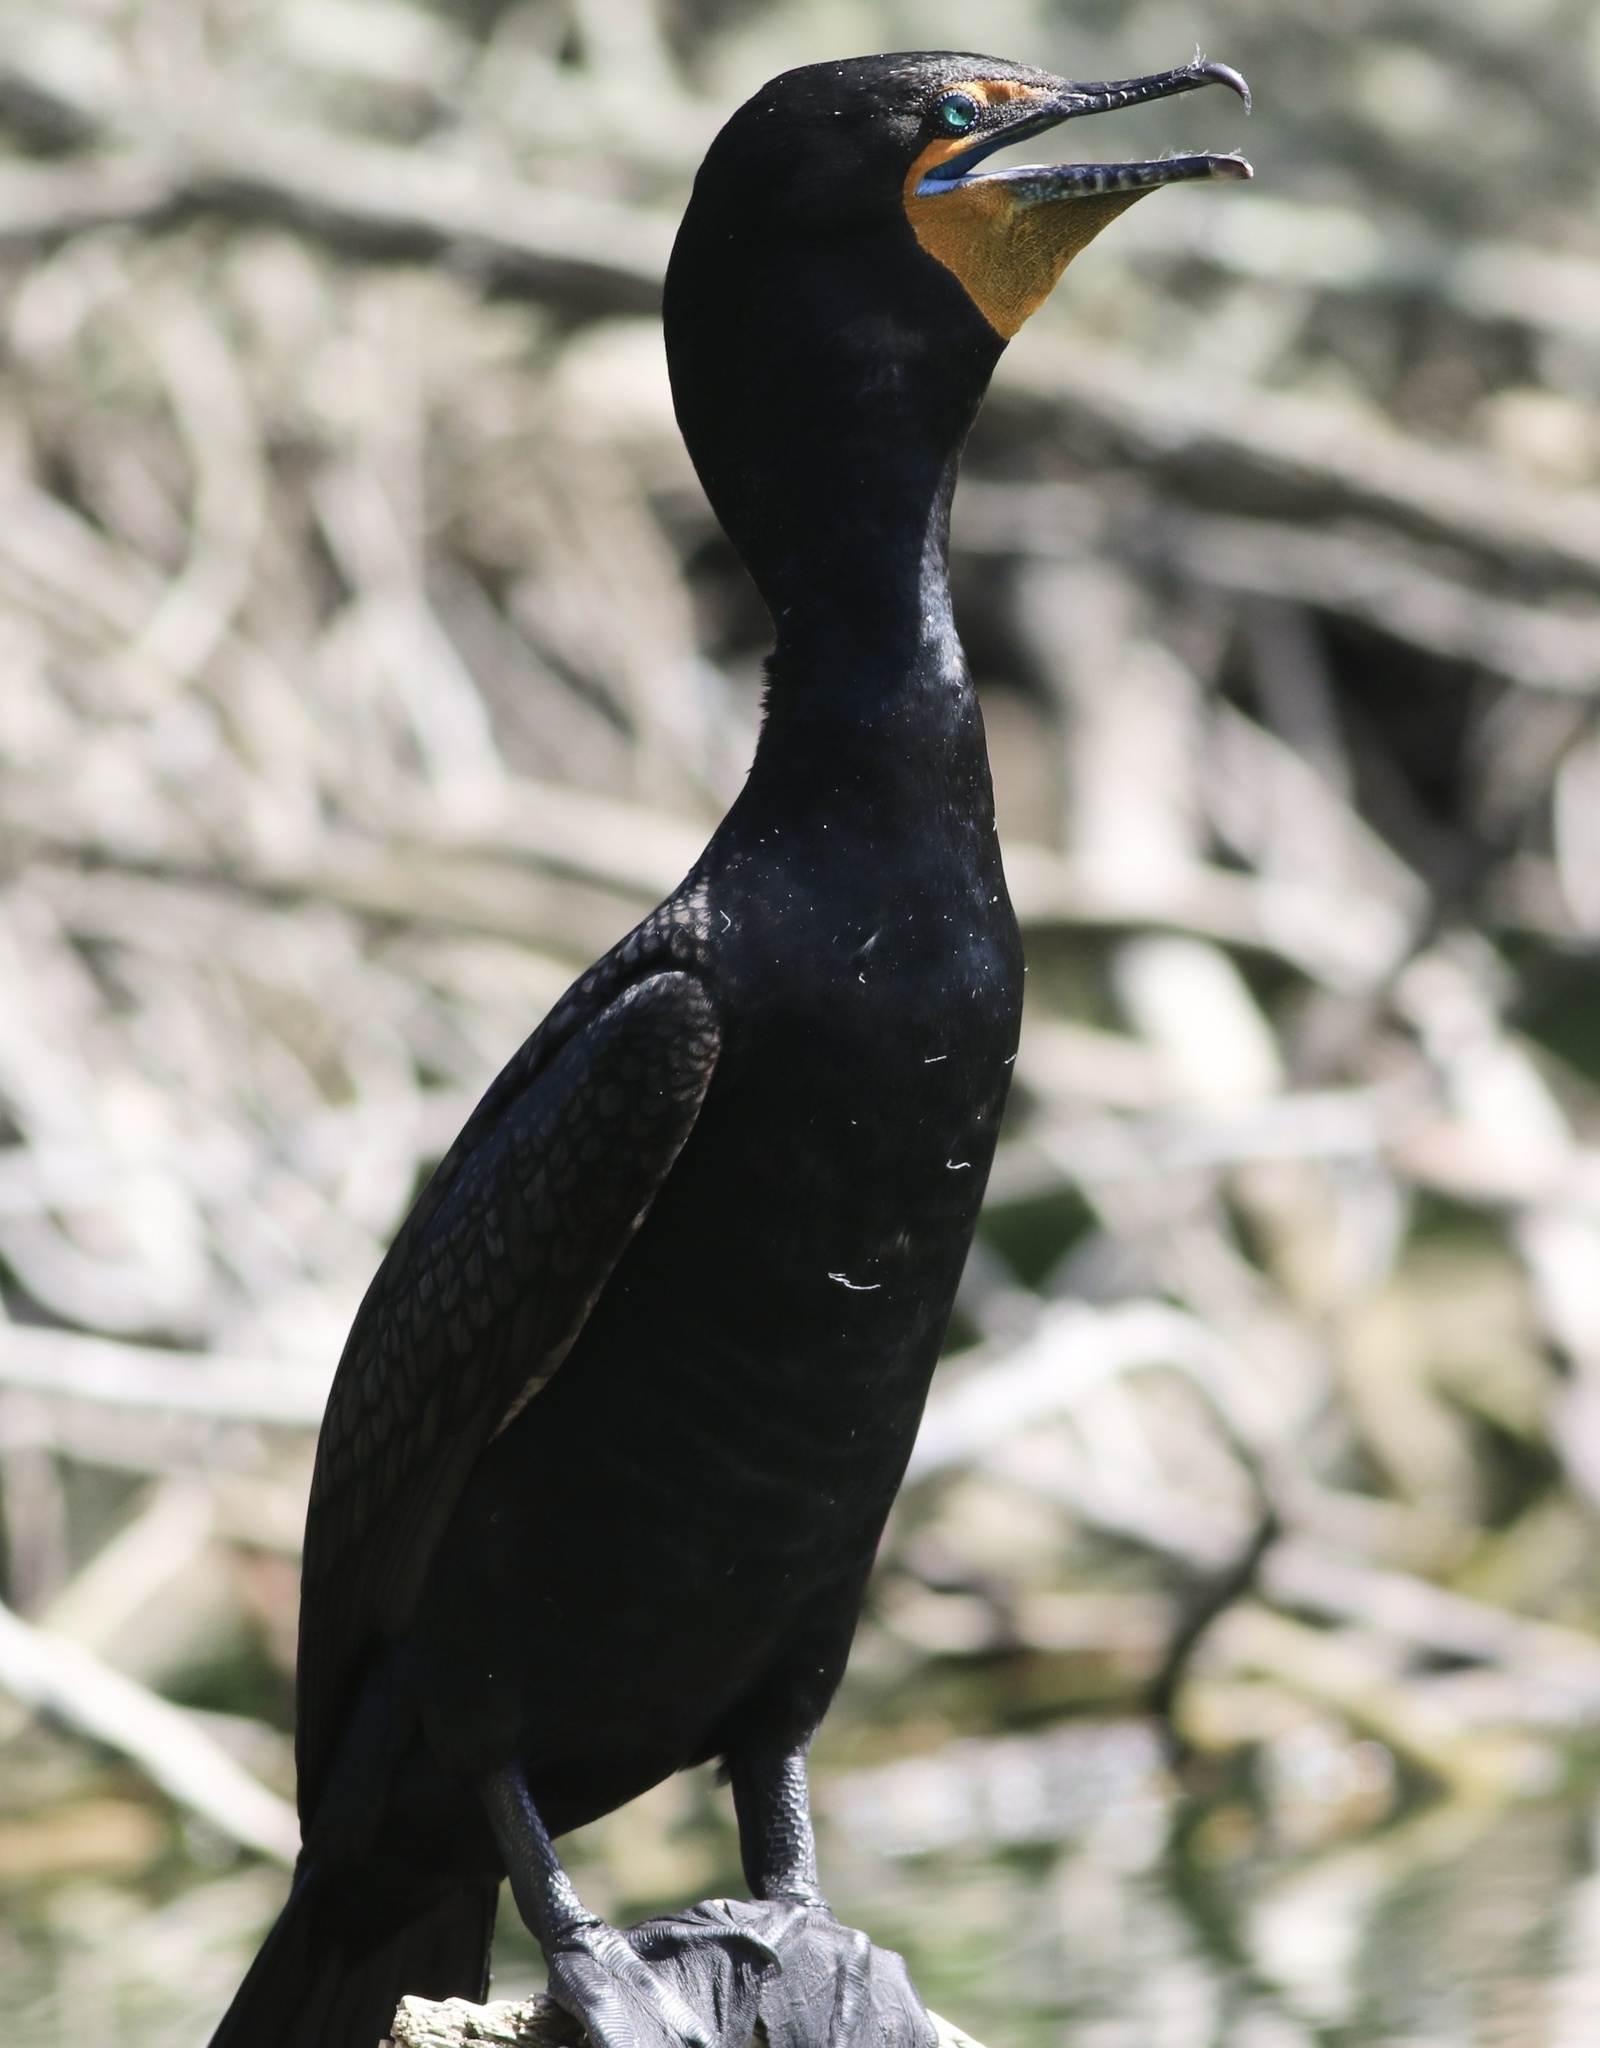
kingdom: Animalia
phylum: Chordata
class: Aves
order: Suliformes
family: Phalacrocoracidae
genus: Phalacrocorax
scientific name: Phalacrocorax auritus
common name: Double-crested cormorant
